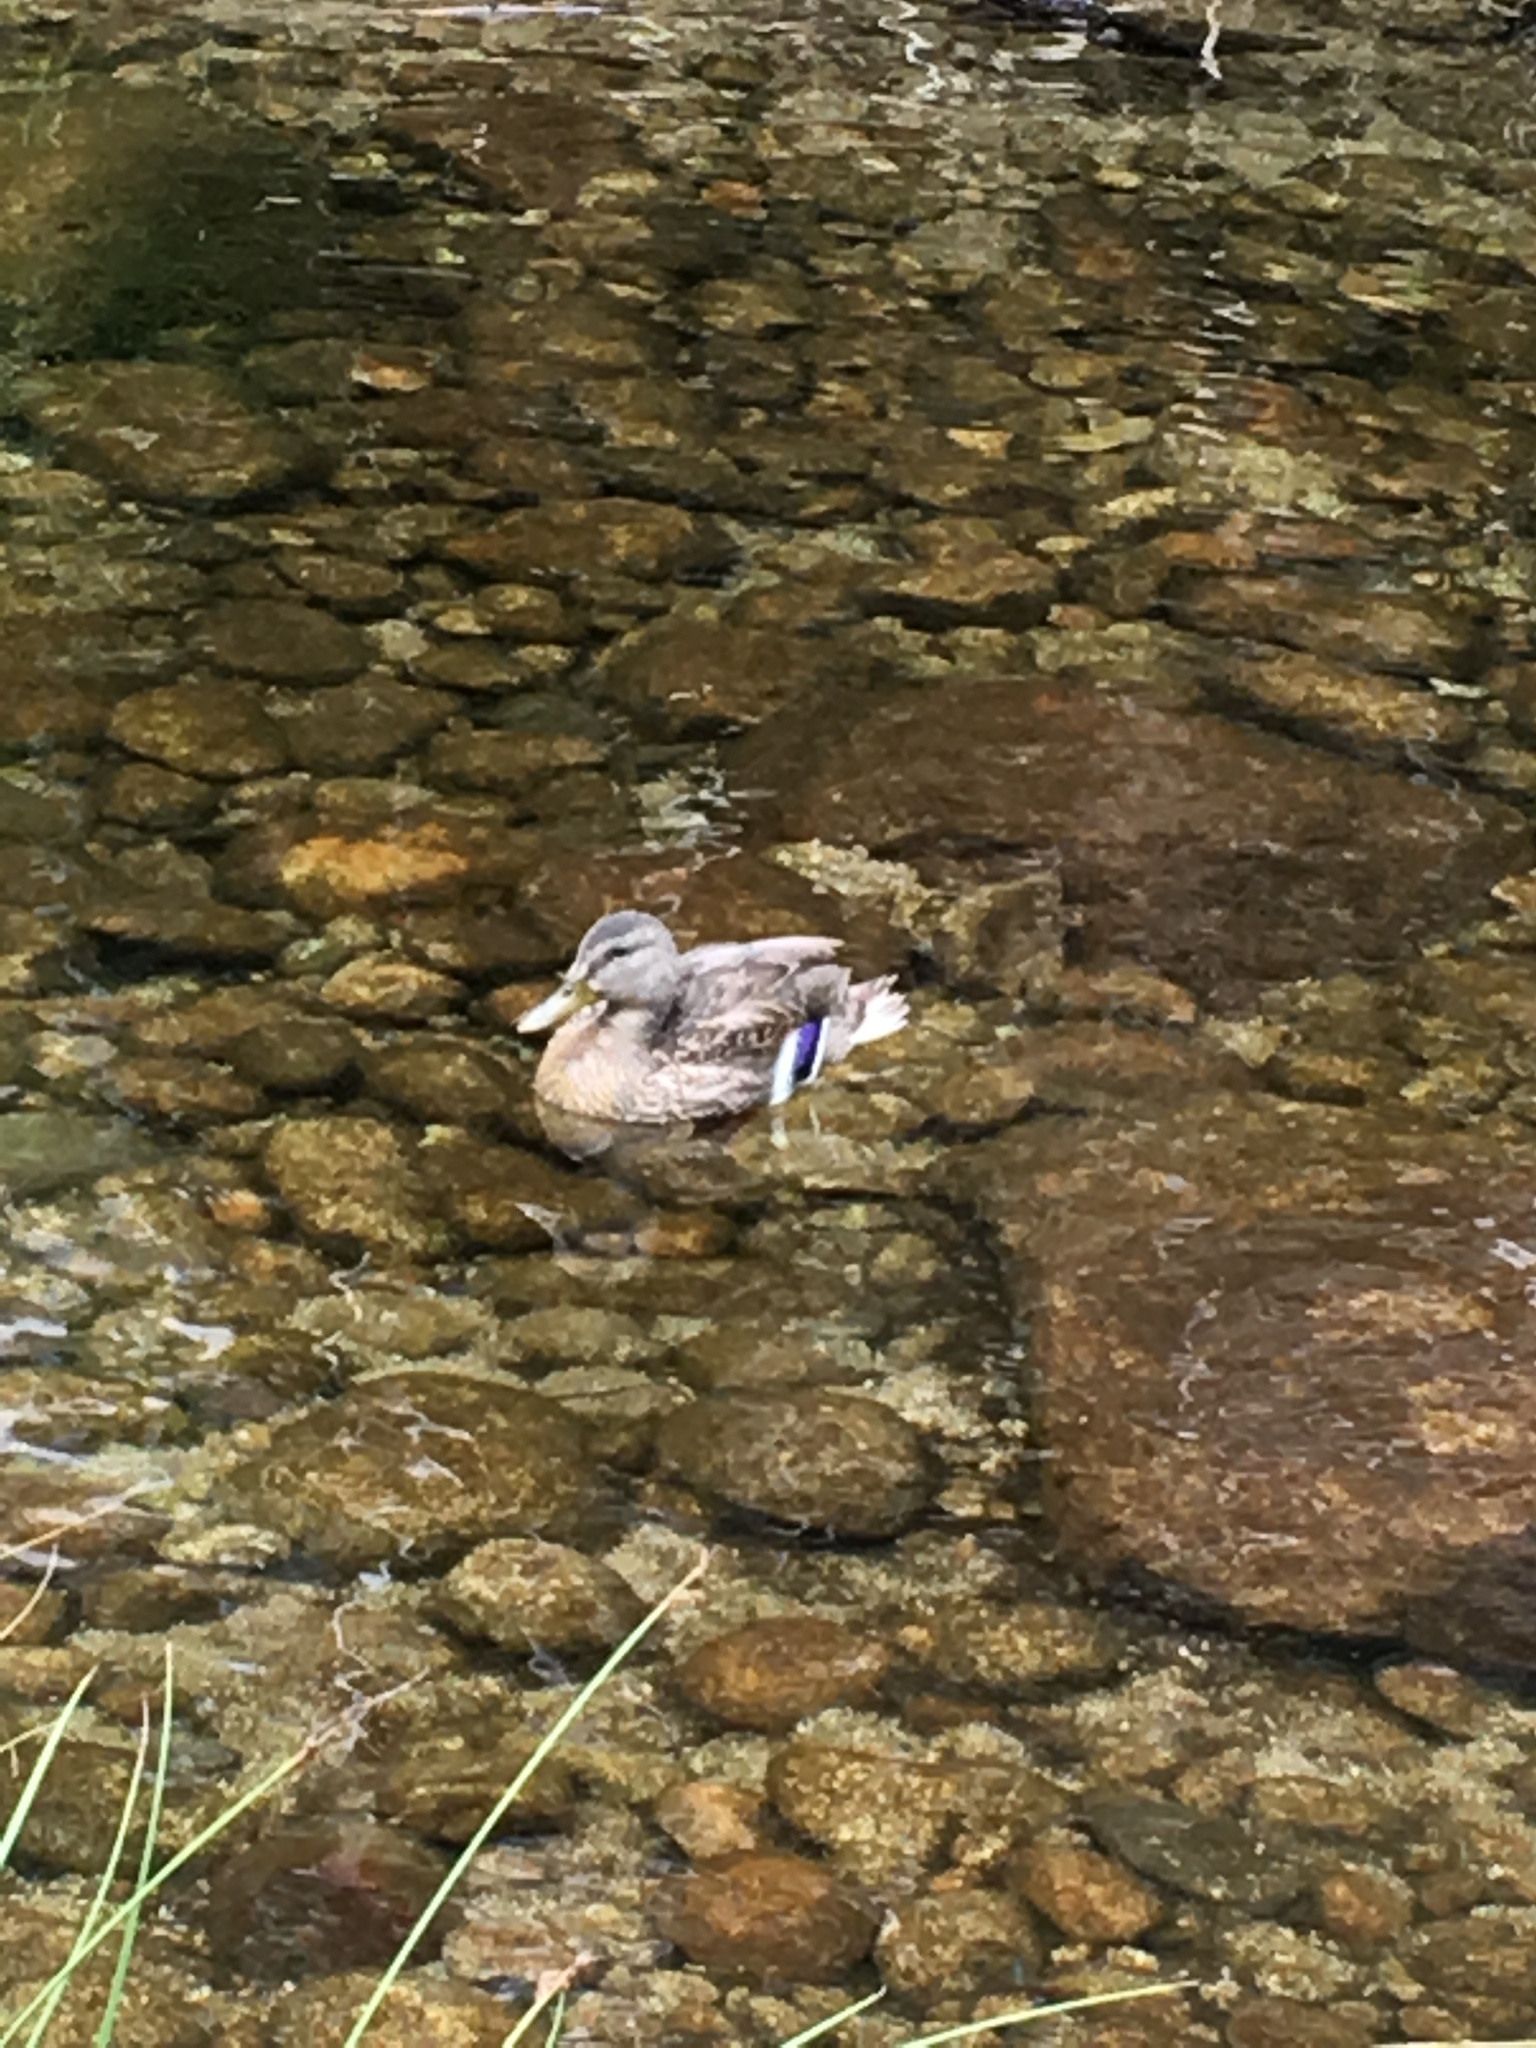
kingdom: Animalia
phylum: Chordata
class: Aves
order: Anseriformes
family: Anatidae
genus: Anas
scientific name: Anas platyrhynchos
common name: Mallard
